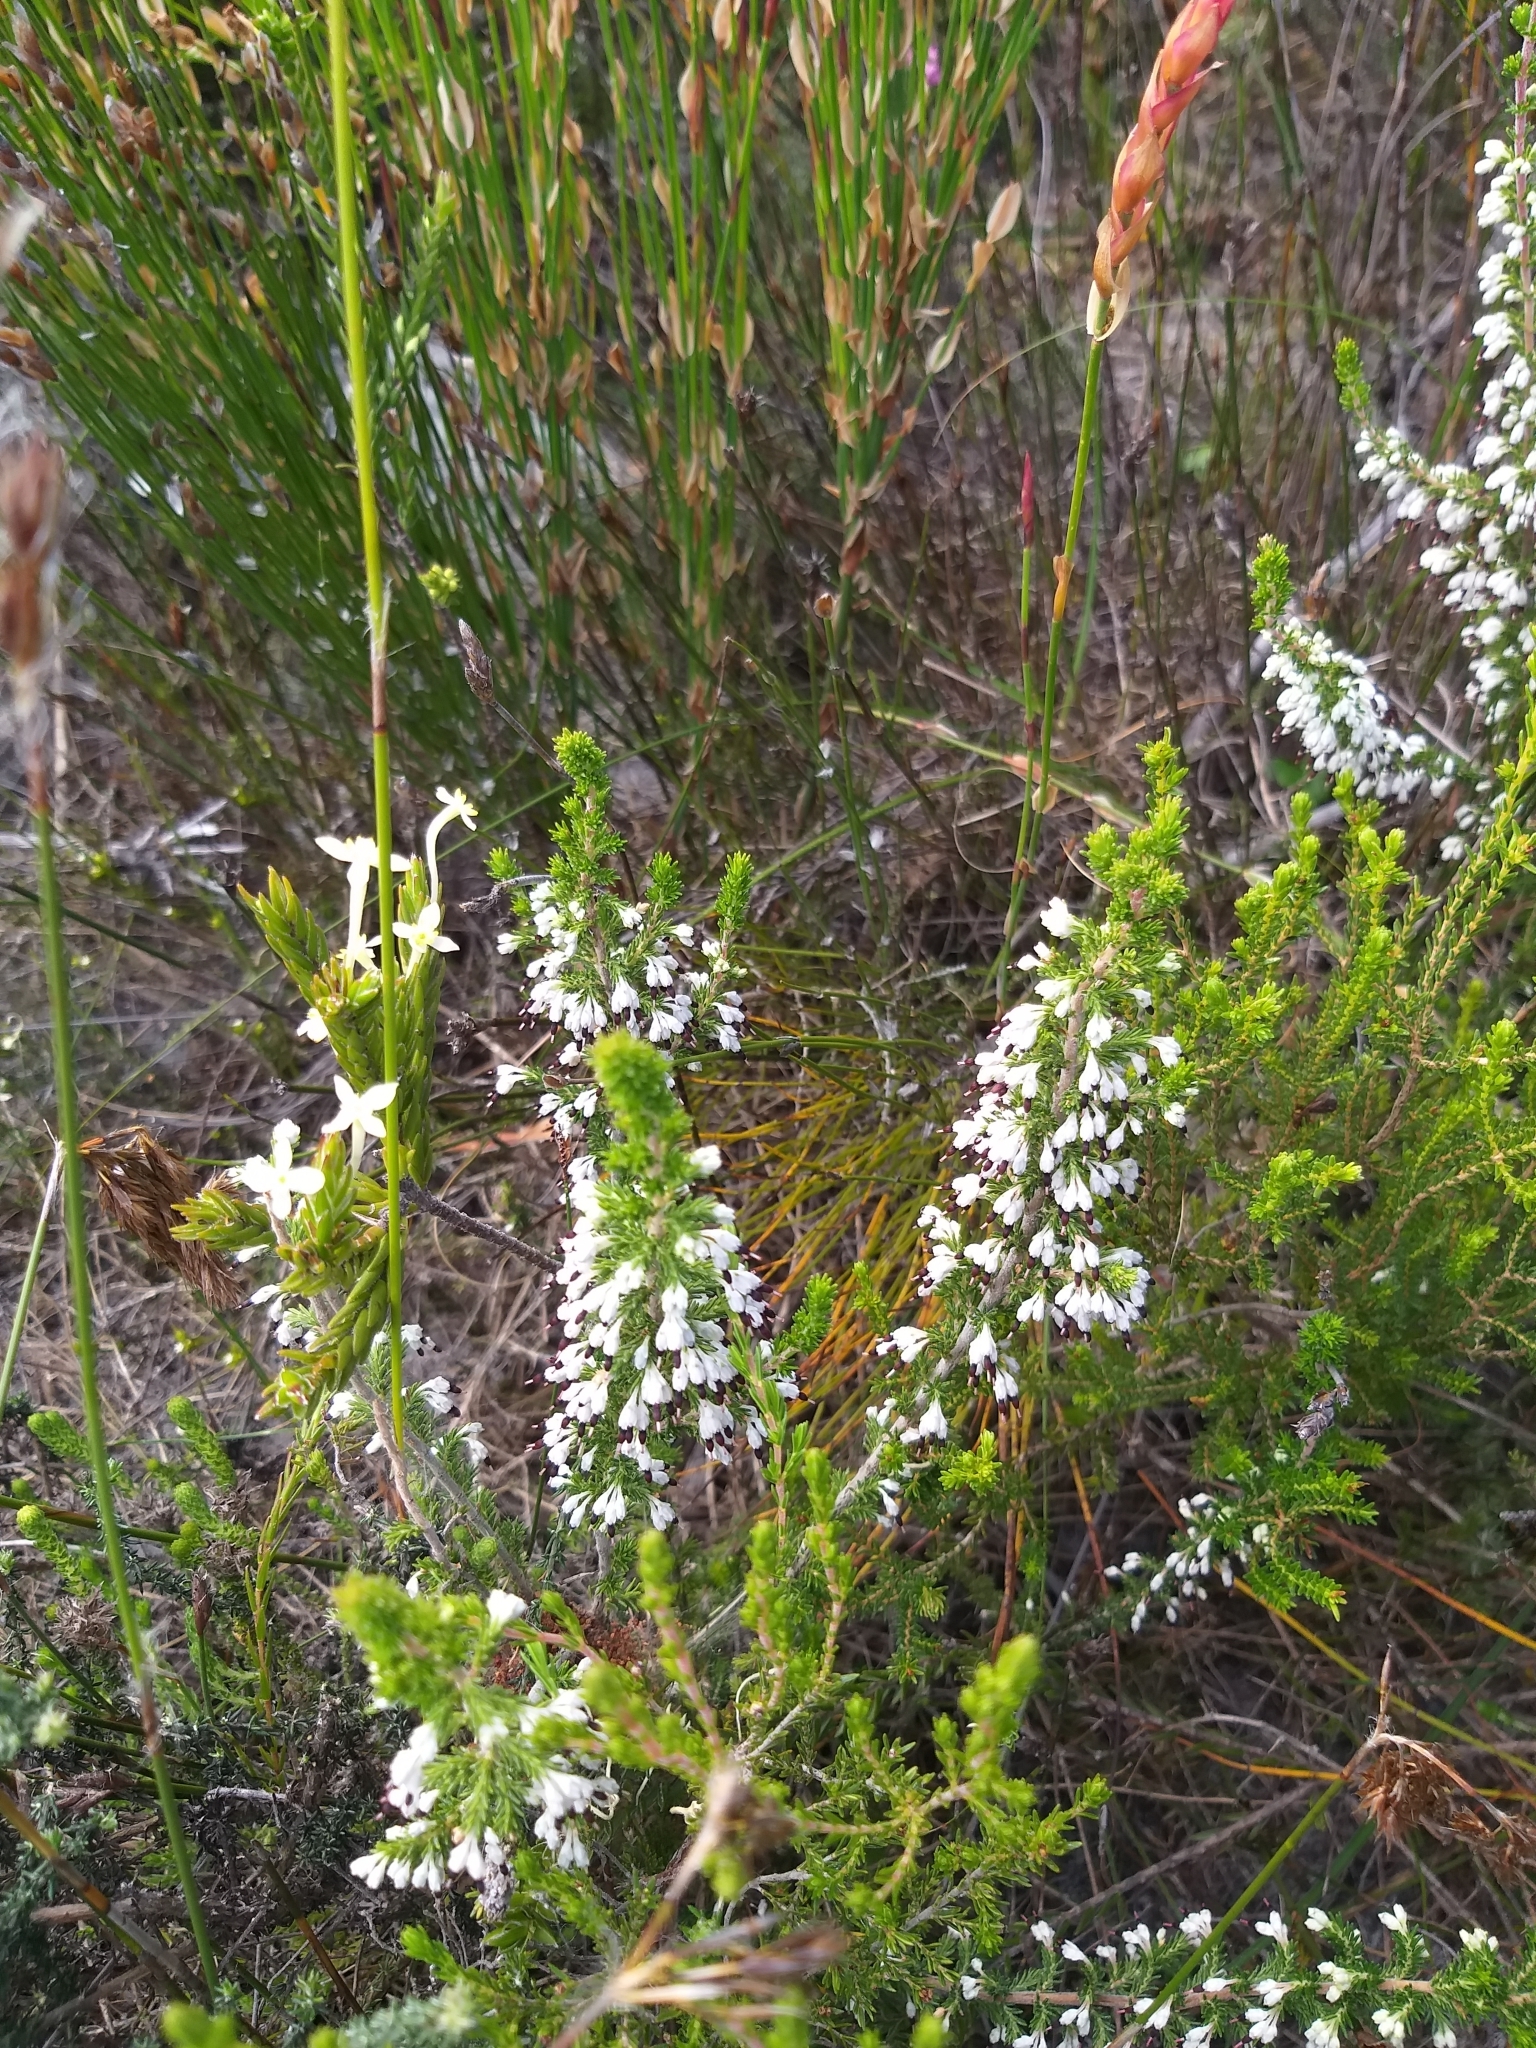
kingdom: Plantae
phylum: Tracheophyta
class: Magnoliopsida
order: Ericales
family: Ericaceae
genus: Erica
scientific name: Erica imbricata
